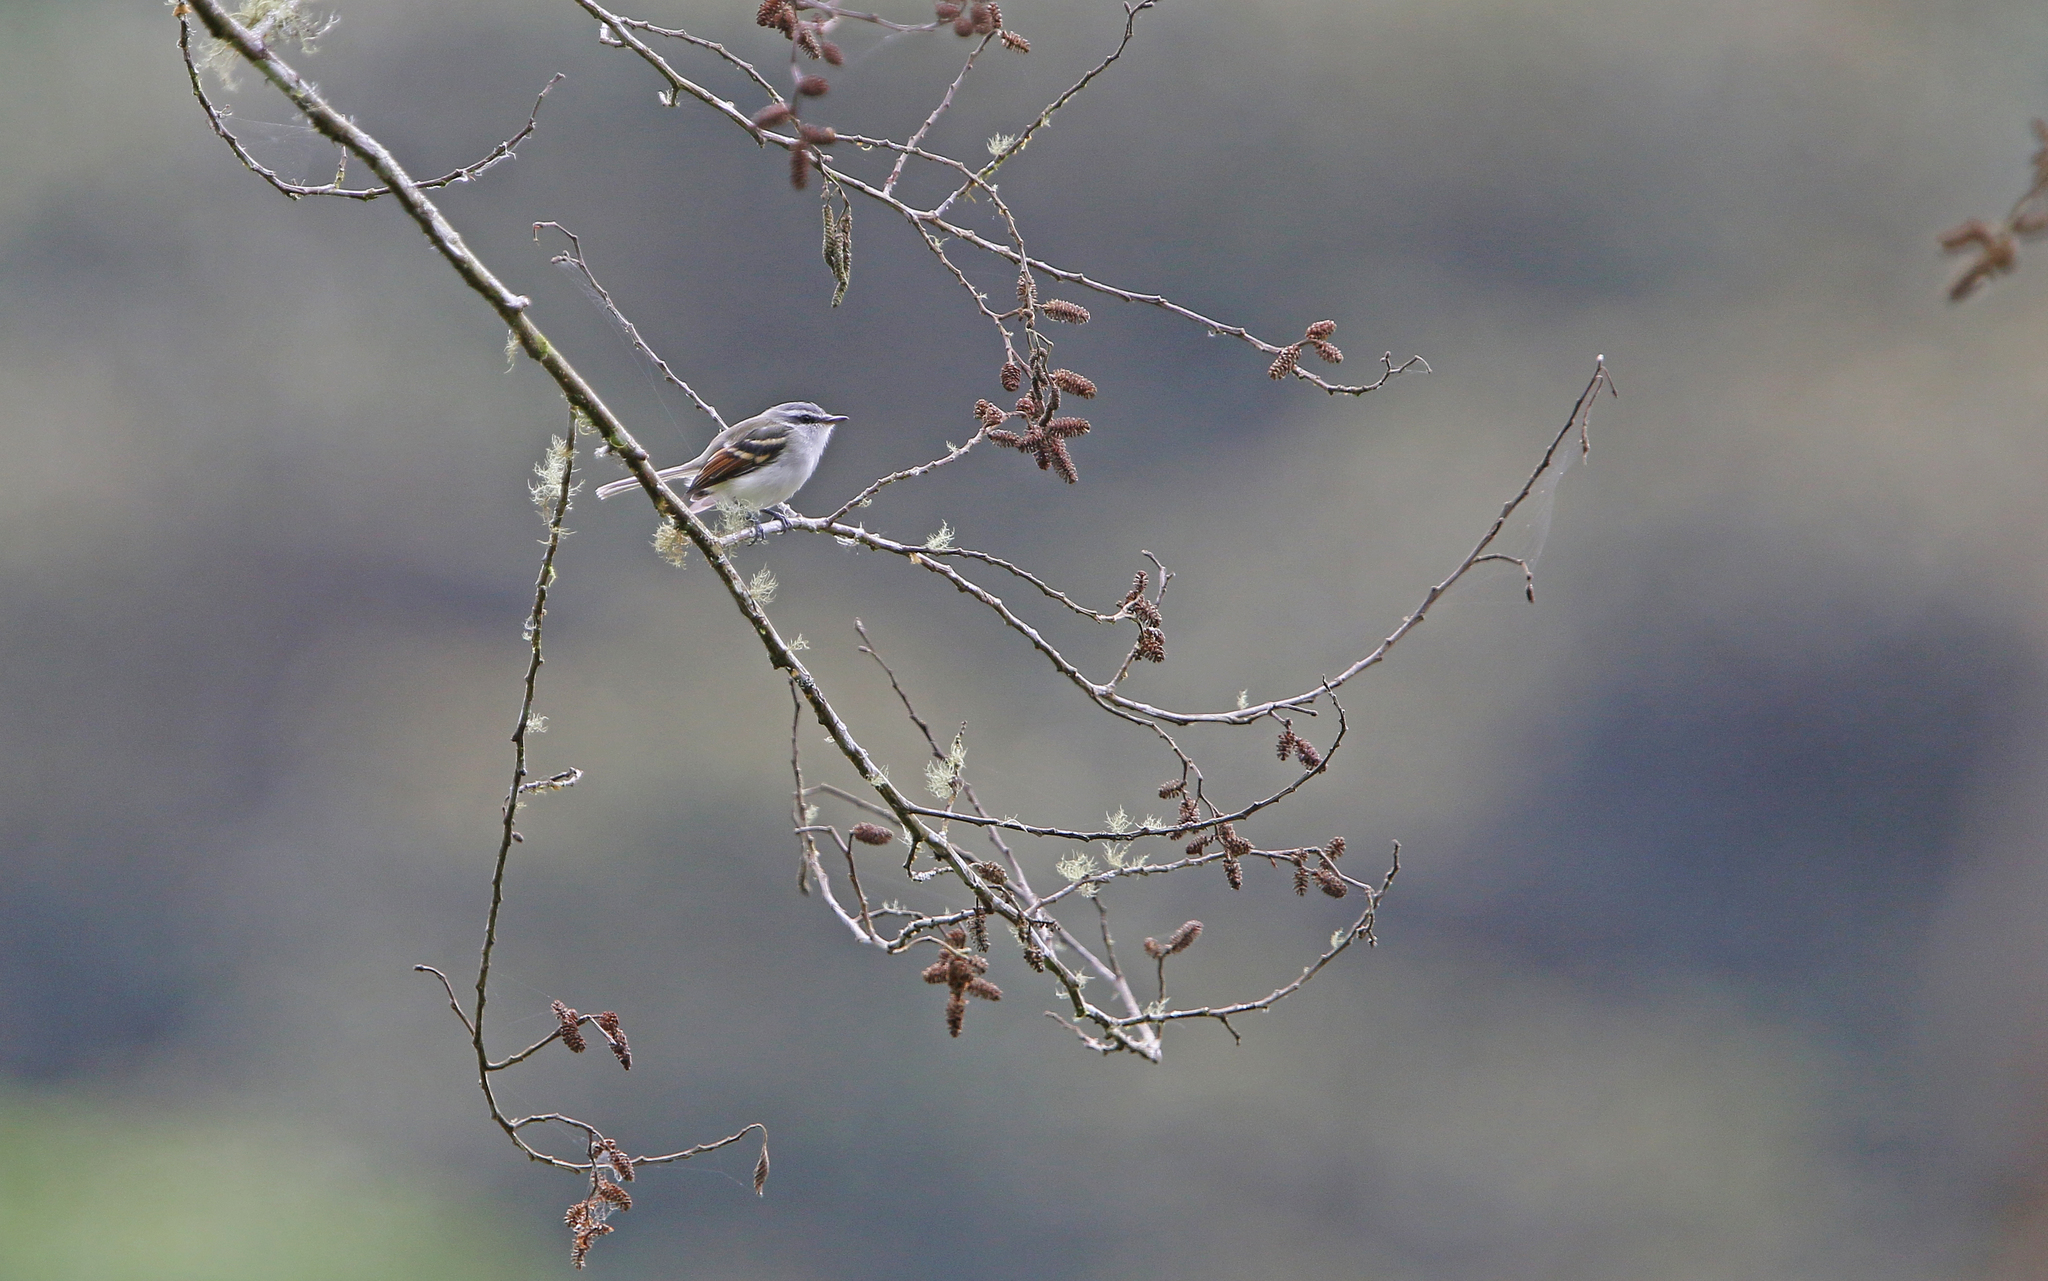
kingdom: Animalia
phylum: Chordata
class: Aves
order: Passeriformes
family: Tyrannidae
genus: Mecocerculus
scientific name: Mecocerculus calopterus
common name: Rufous-winged tyrannulet
